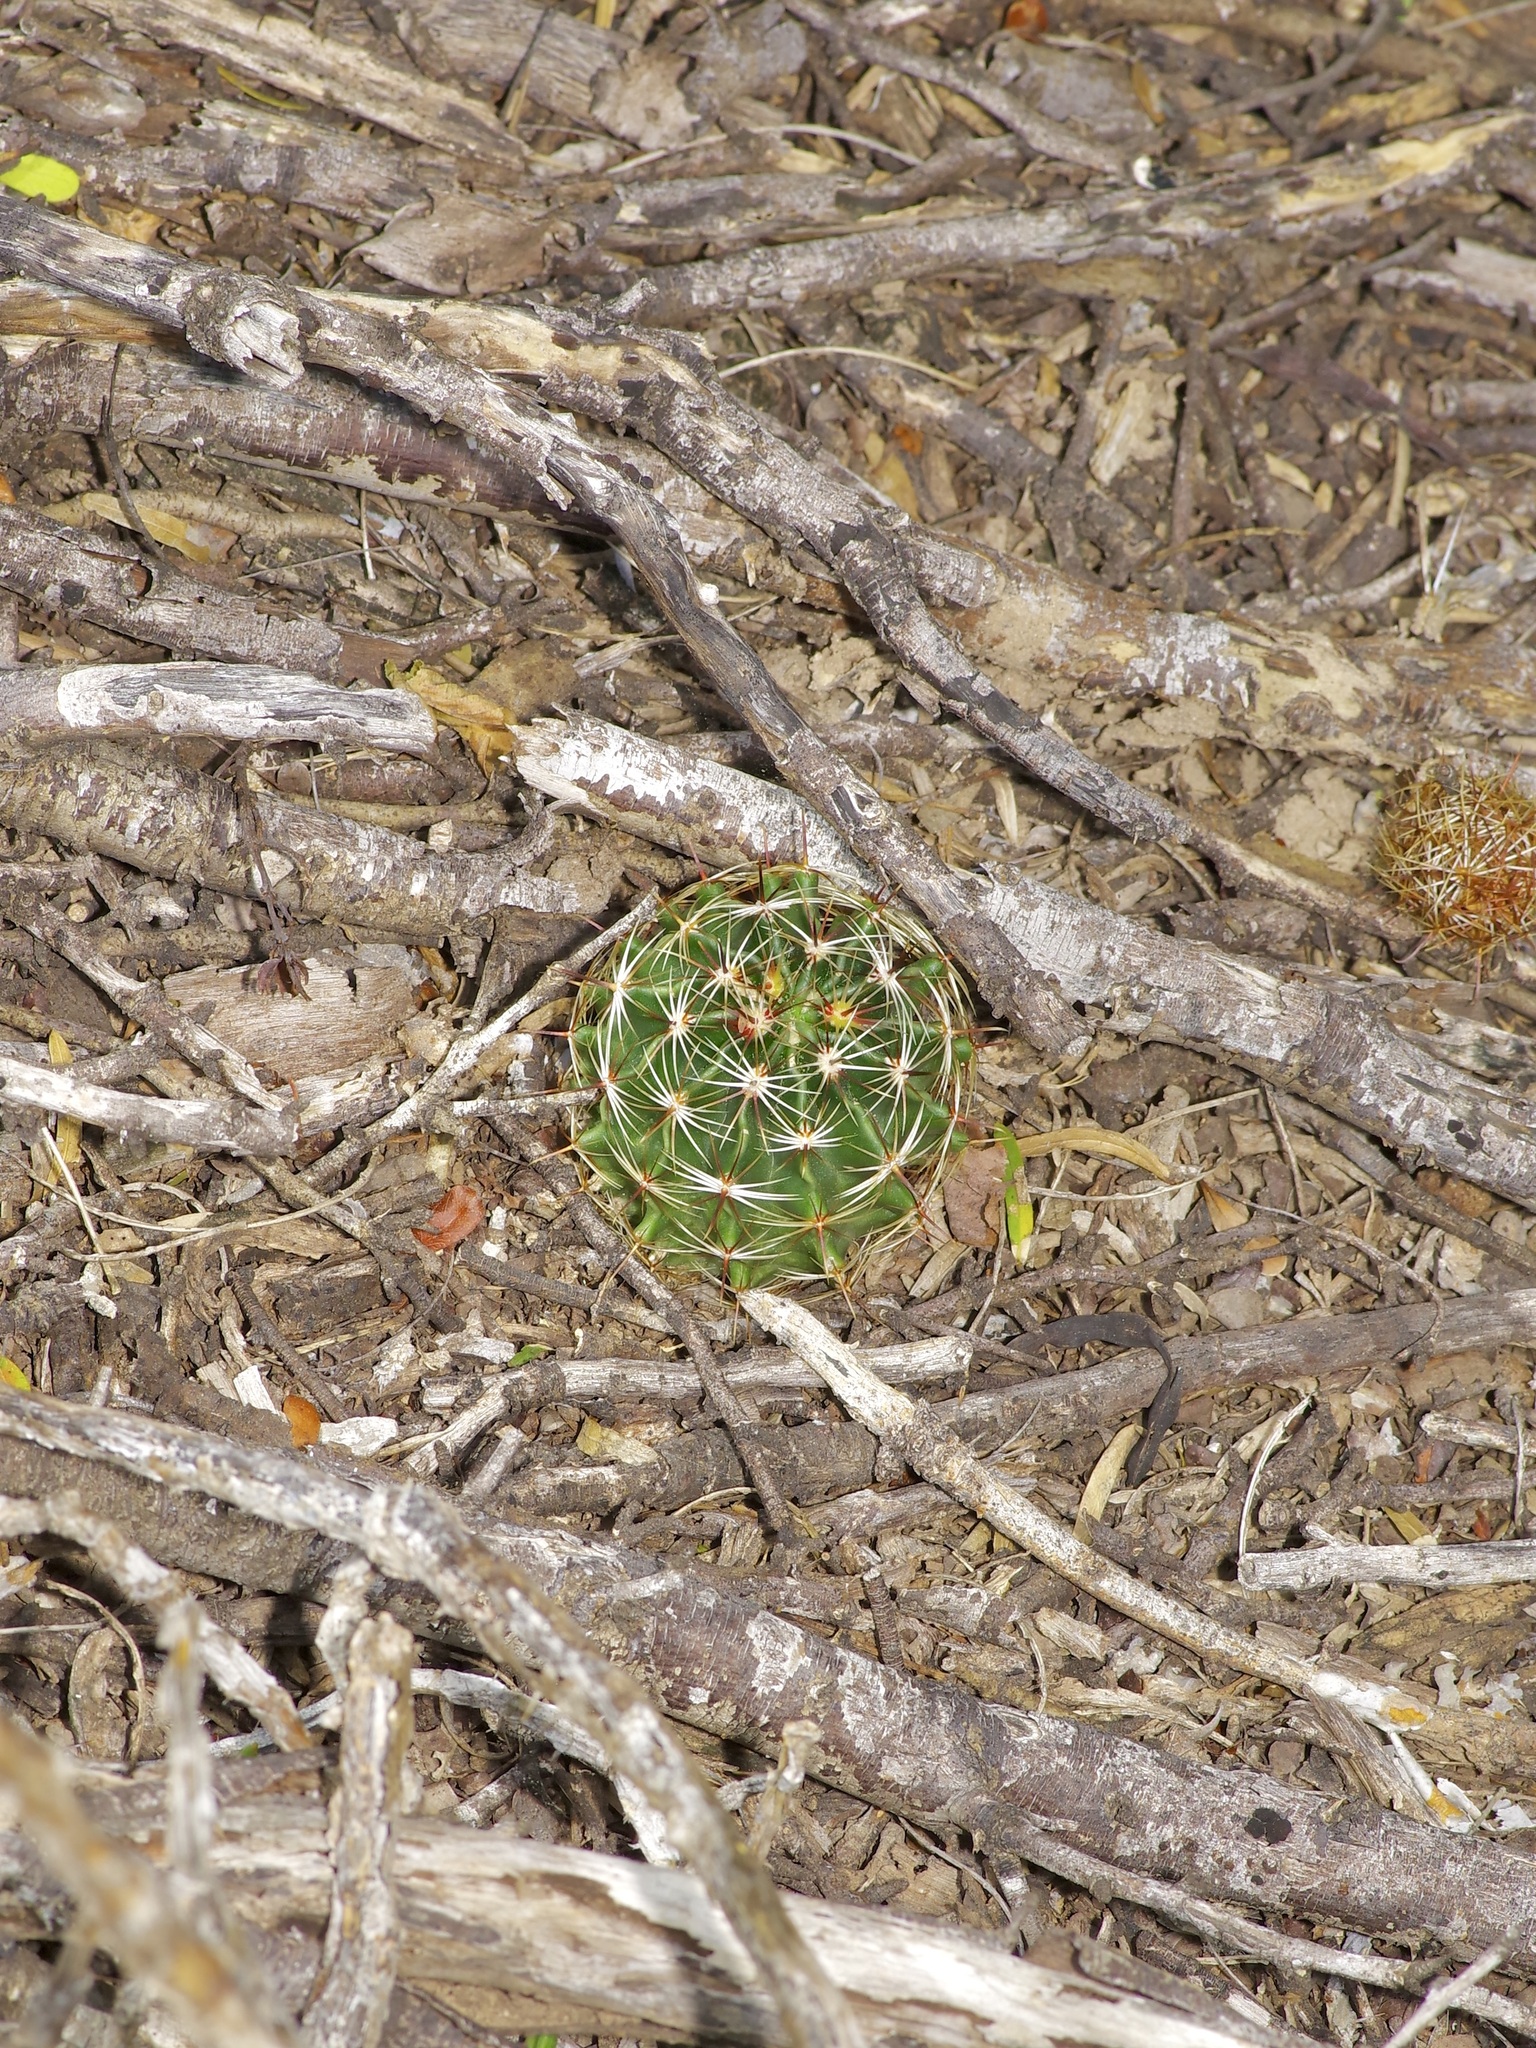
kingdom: Plantae
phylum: Tracheophyta
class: Magnoliopsida
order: Caryophyllales
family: Cactaceae
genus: Thelocactus
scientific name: Thelocactus setispinus
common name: Miniature barrel cactus
